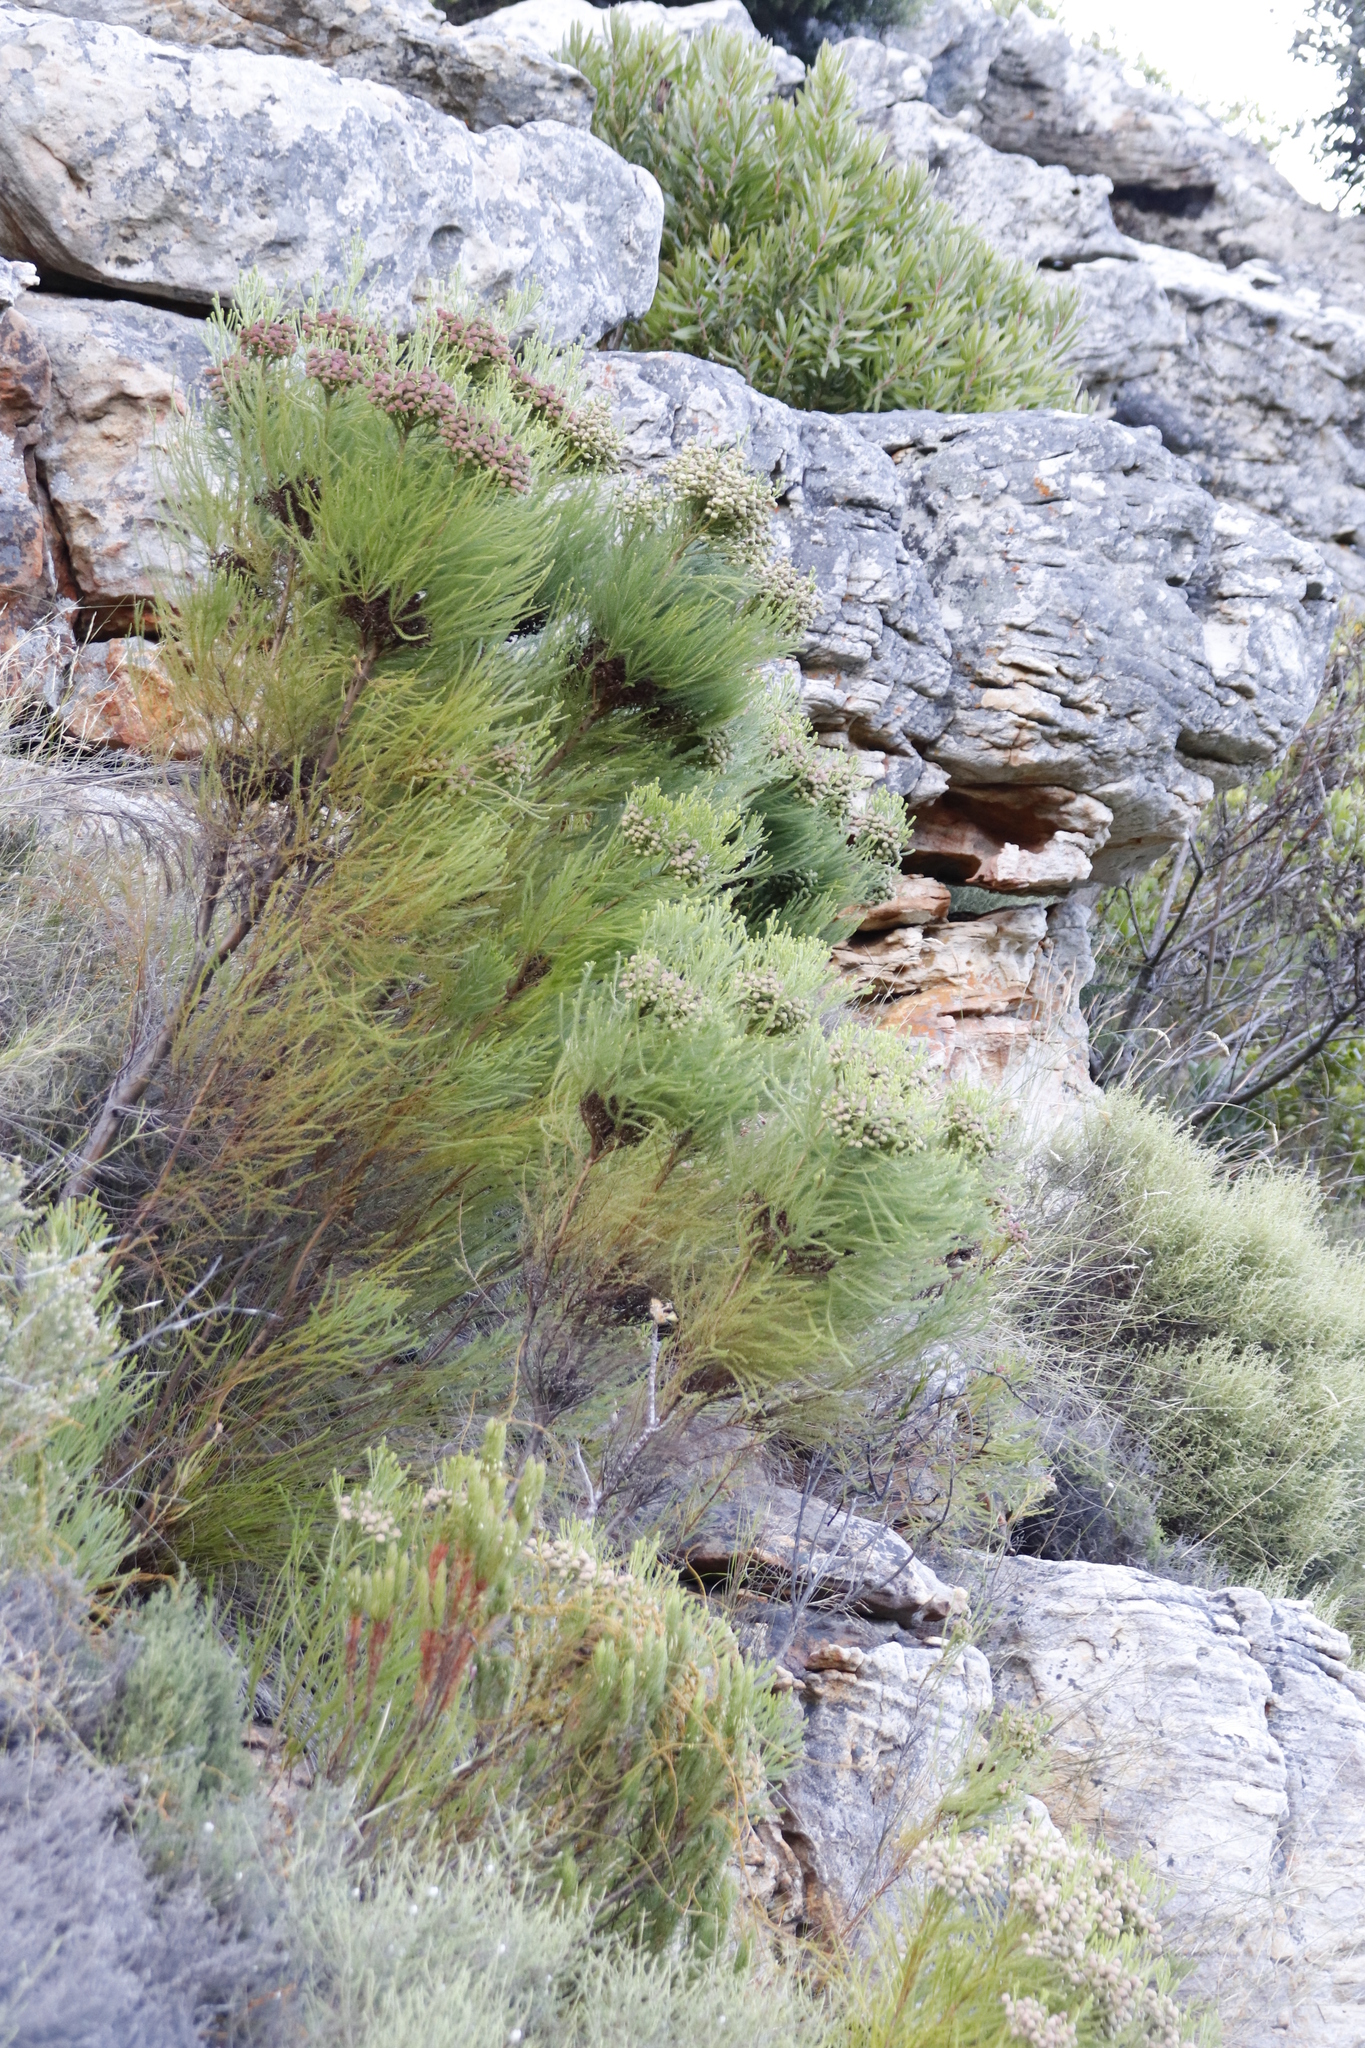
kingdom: Plantae
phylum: Tracheophyta
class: Magnoliopsida
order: Bruniales
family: Bruniaceae
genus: Berzelia
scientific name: Berzelia lanuginosa
